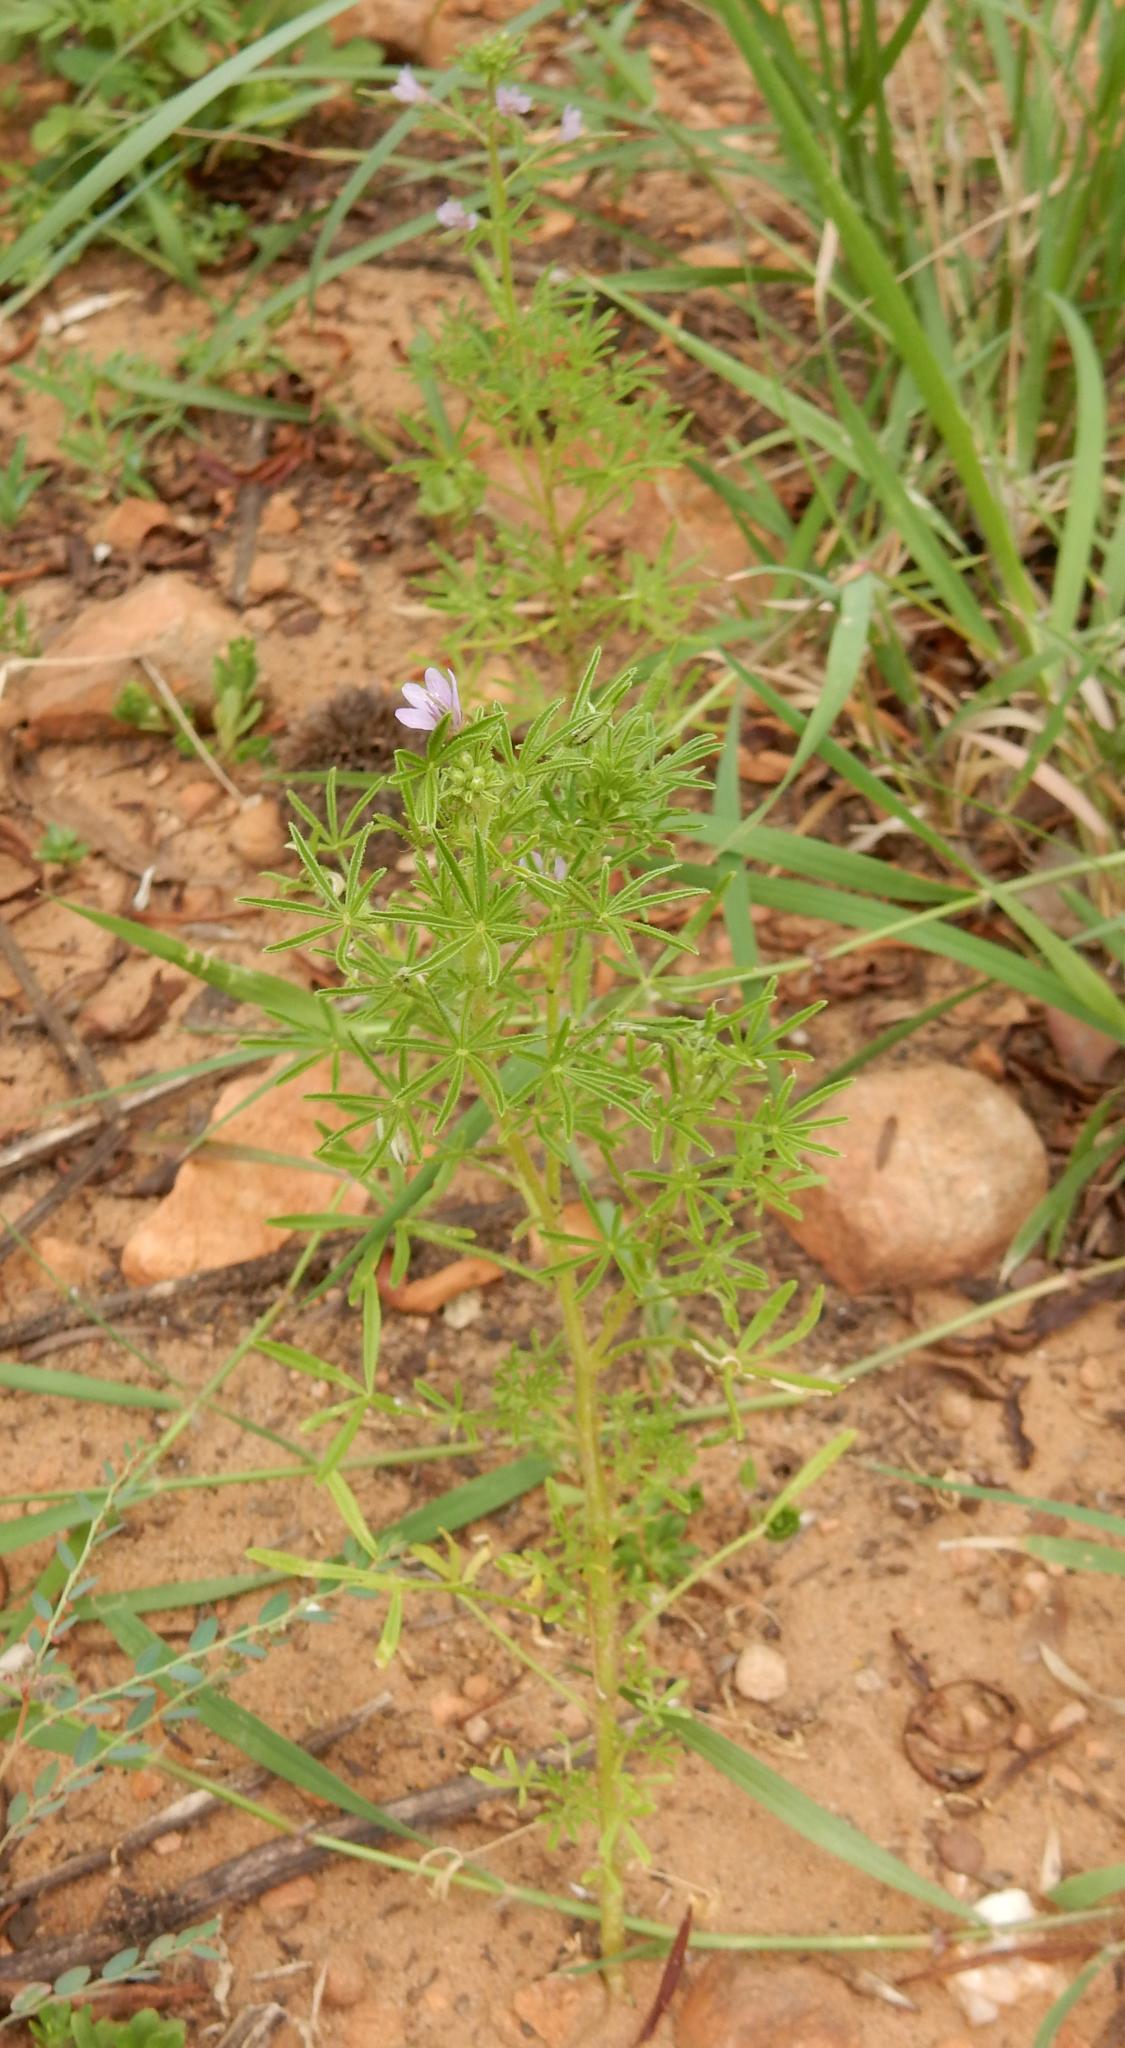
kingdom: Plantae
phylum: Tracheophyta
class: Magnoliopsida
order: Brassicales
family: Cleomaceae
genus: Sieruela
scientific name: Sieruela rubella
